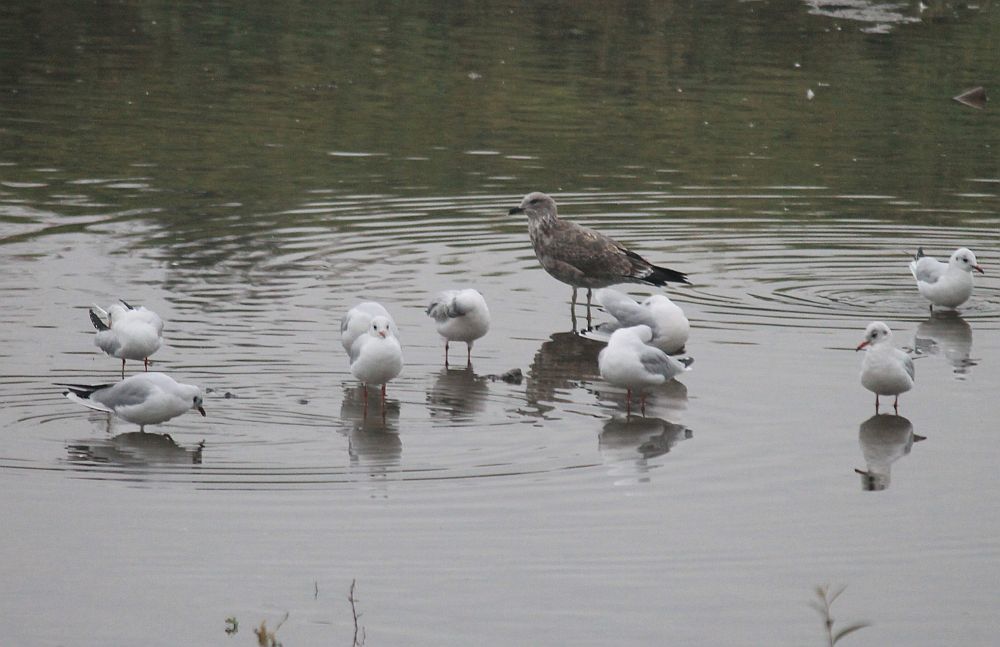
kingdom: Animalia
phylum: Chordata
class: Aves
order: Charadriiformes
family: Laridae
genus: Chroicocephalus
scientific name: Chroicocephalus ridibundus
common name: Black-headed gull
